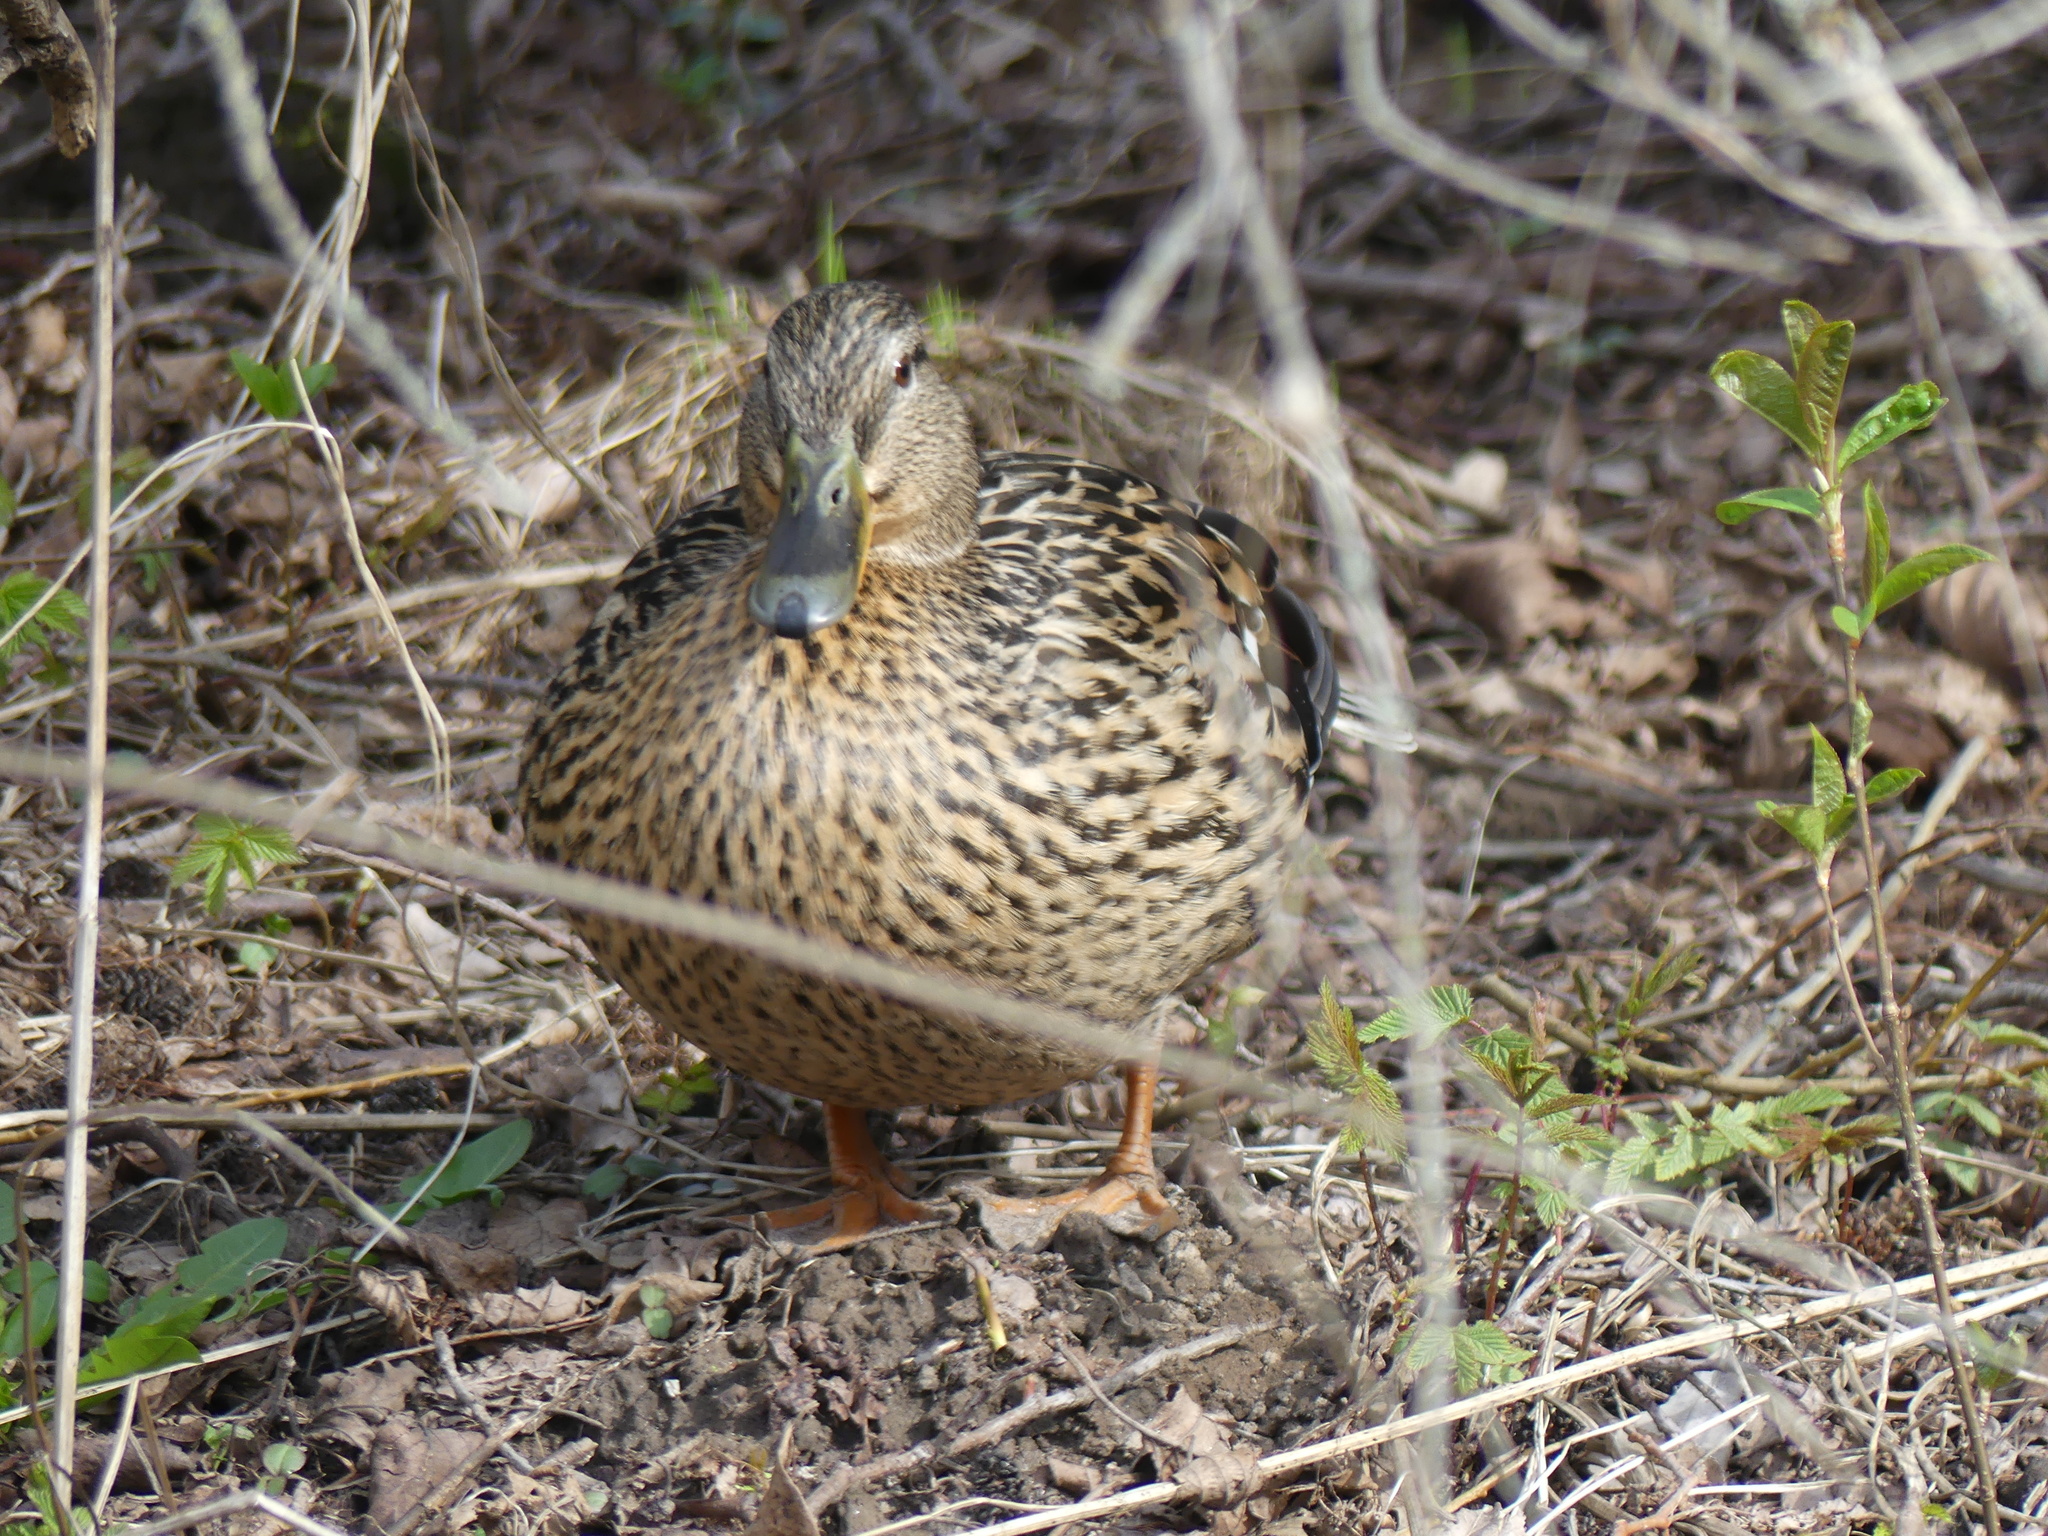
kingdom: Animalia
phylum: Chordata
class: Aves
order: Anseriformes
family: Anatidae
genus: Anas
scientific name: Anas platyrhynchos
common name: Mallard
